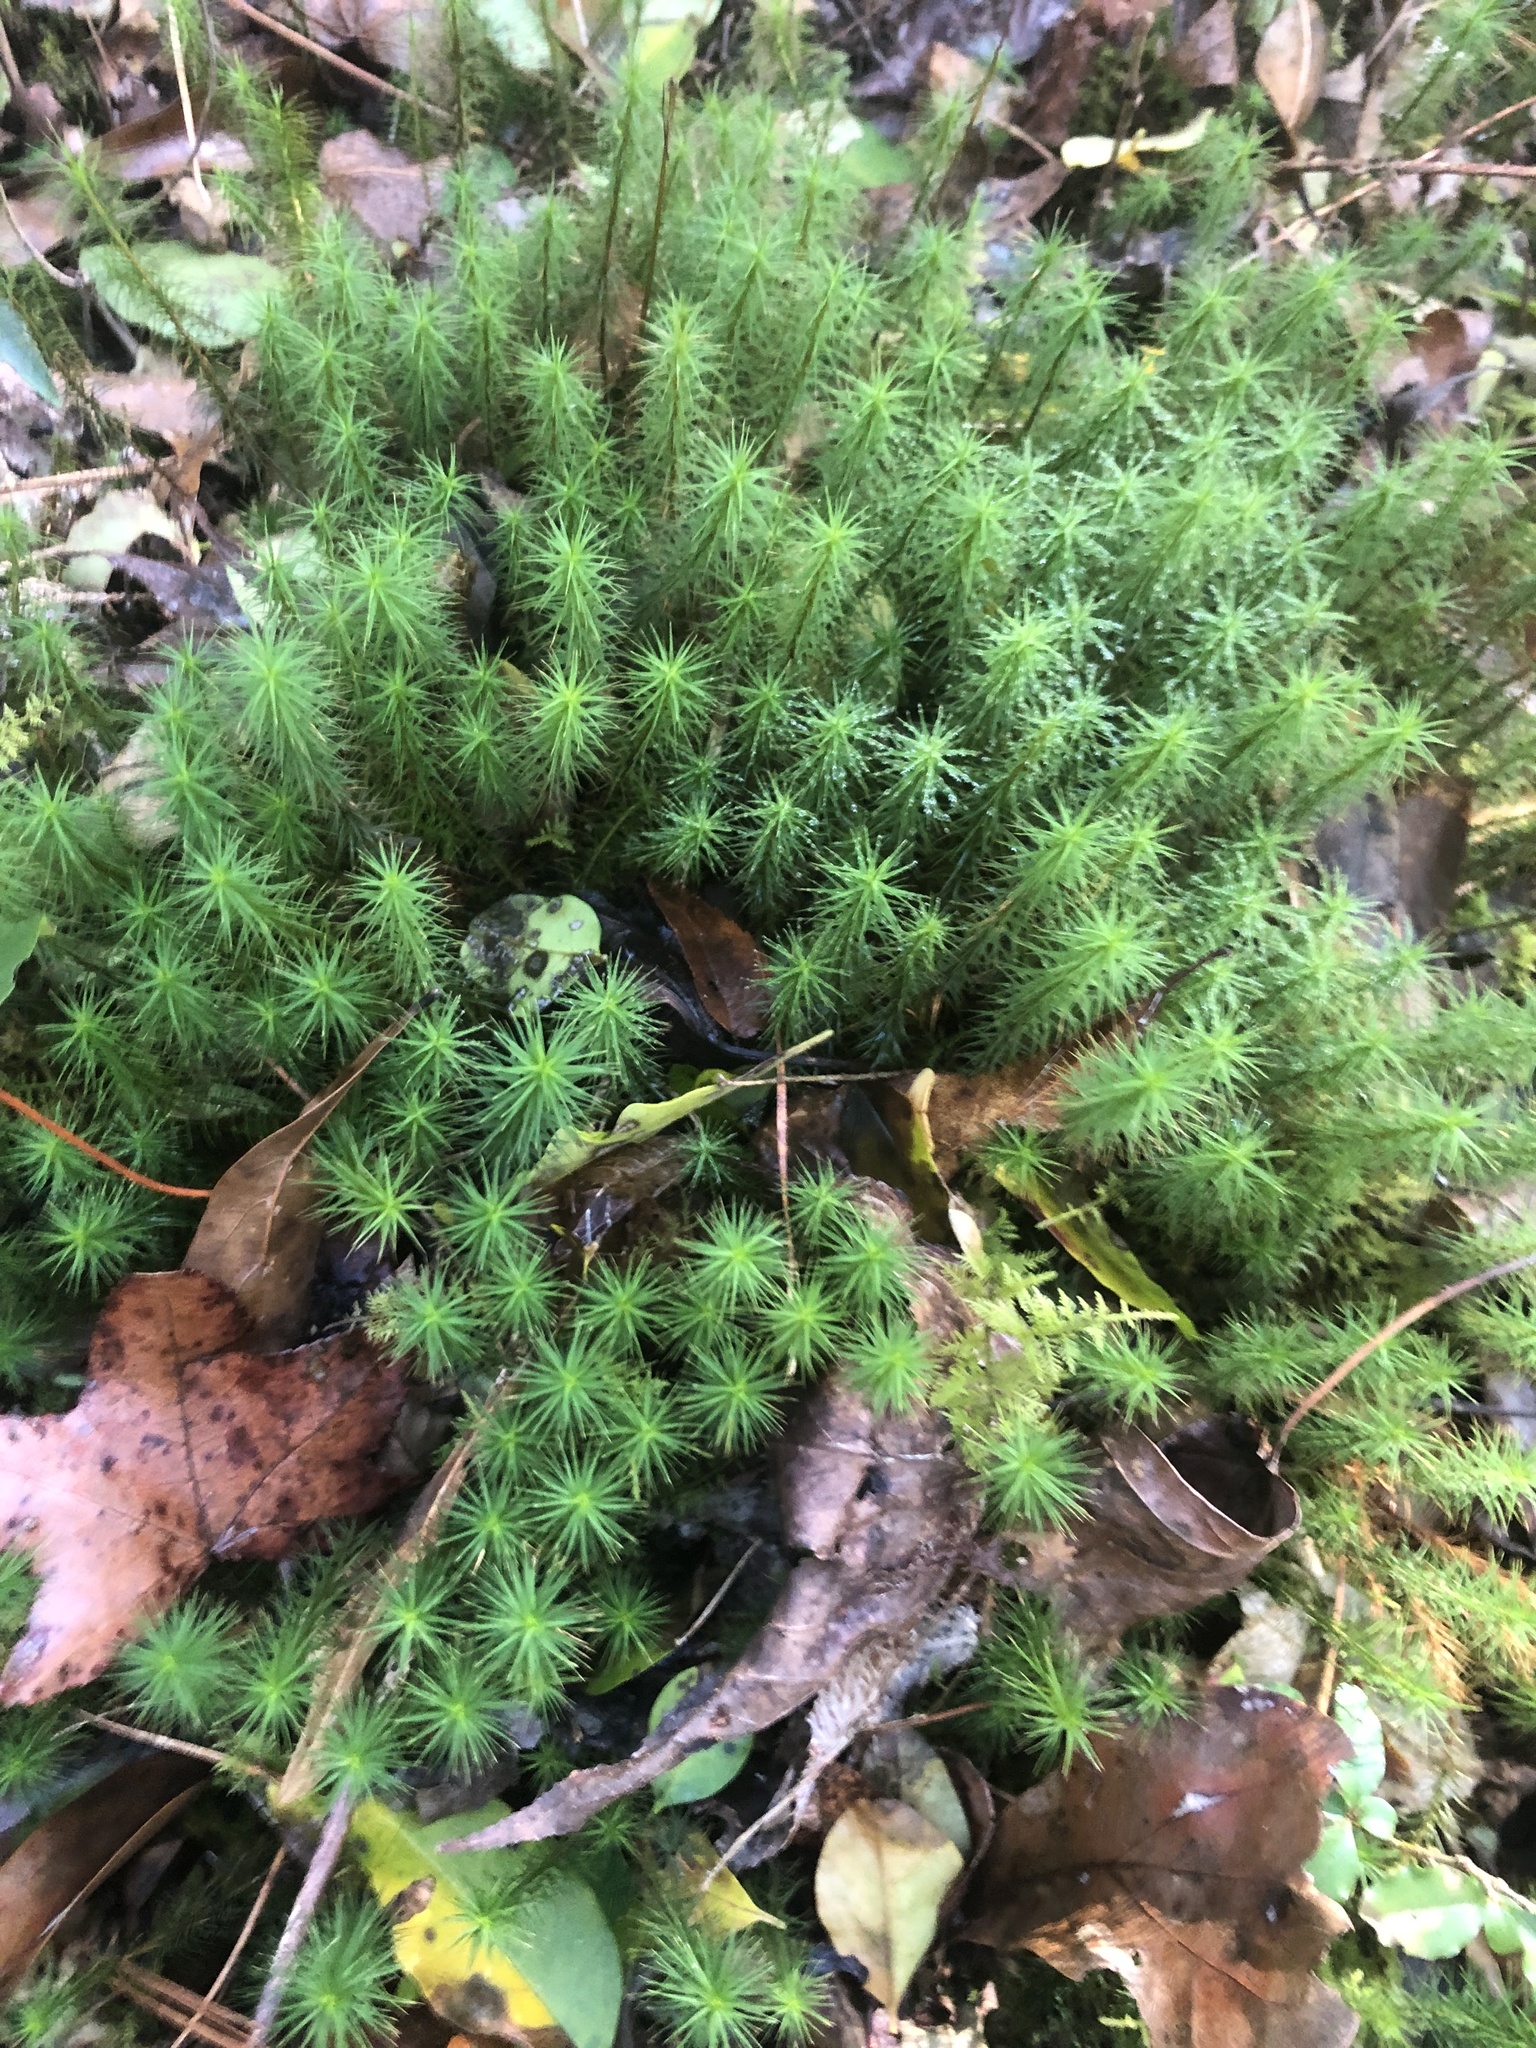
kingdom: Plantae
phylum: Bryophyta
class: Polytrichopsida
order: Polytrichales
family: Polytrichaceae
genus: Polytrichum
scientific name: Polytrichum commune
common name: Common haircap
